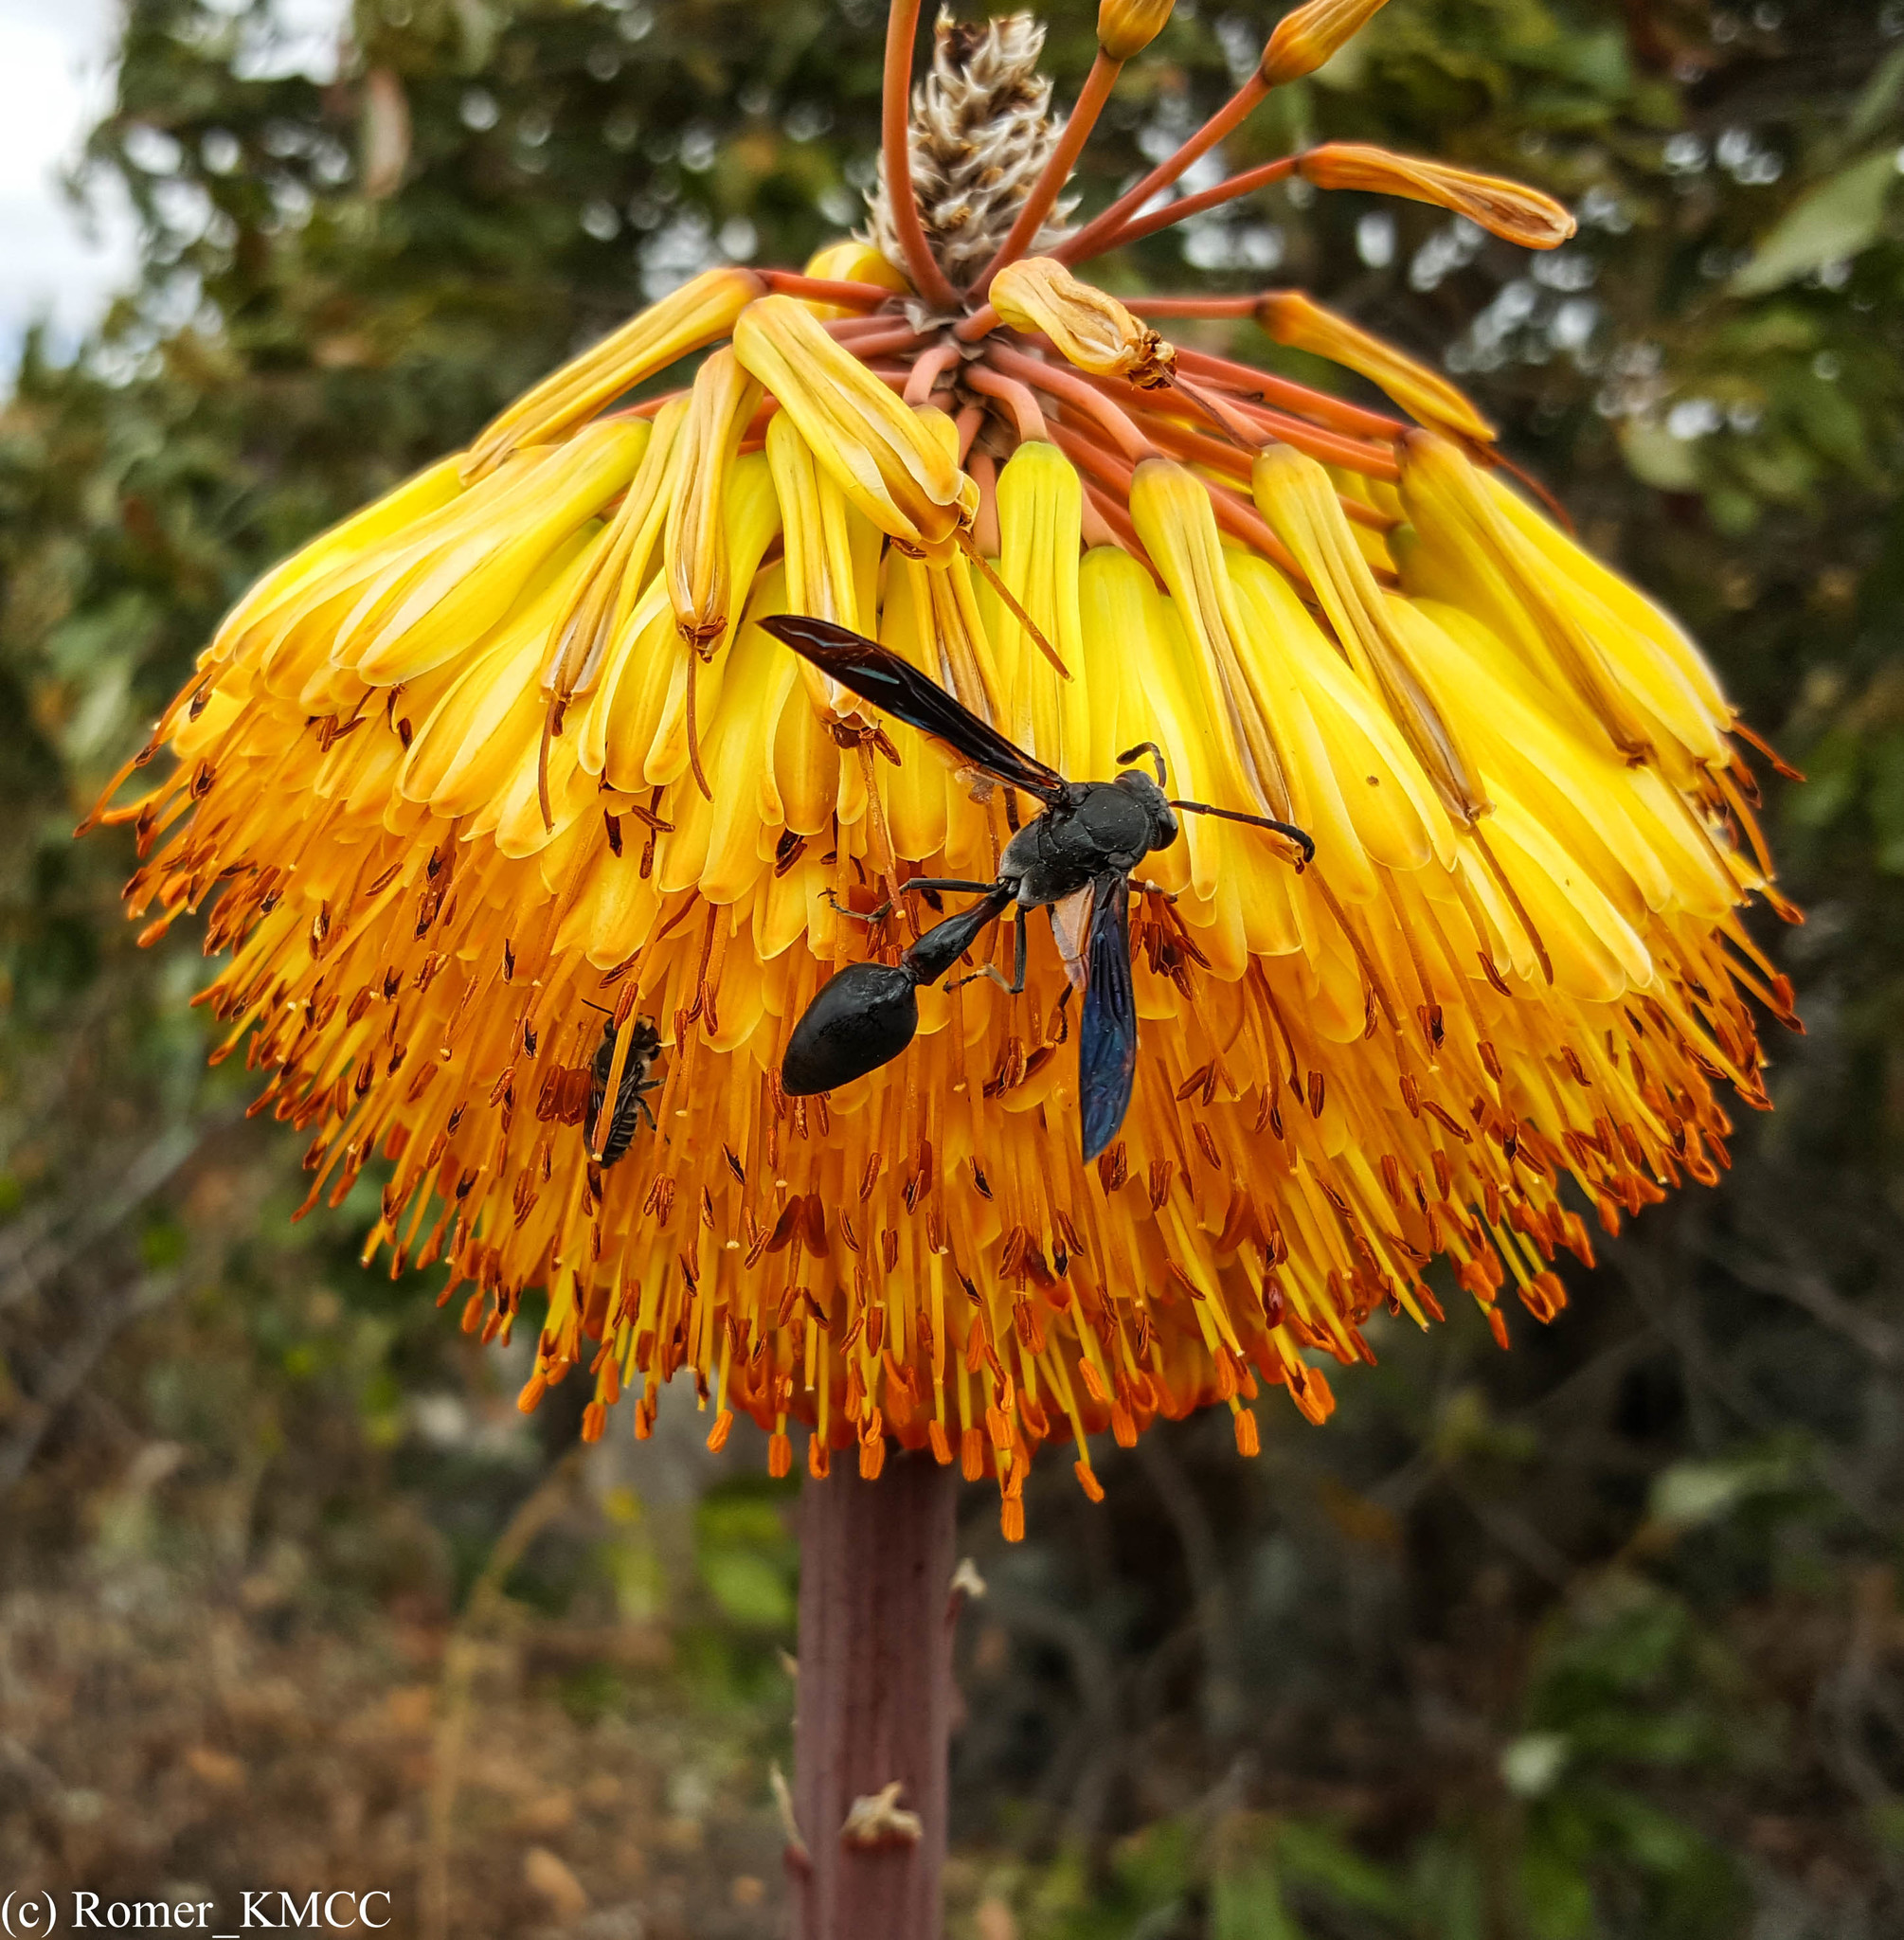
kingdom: Plantae
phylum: Tracheophyta
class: Liliopsida
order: Asparagales
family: Asphodelaceae
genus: Aloe
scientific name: Aloe capitata
